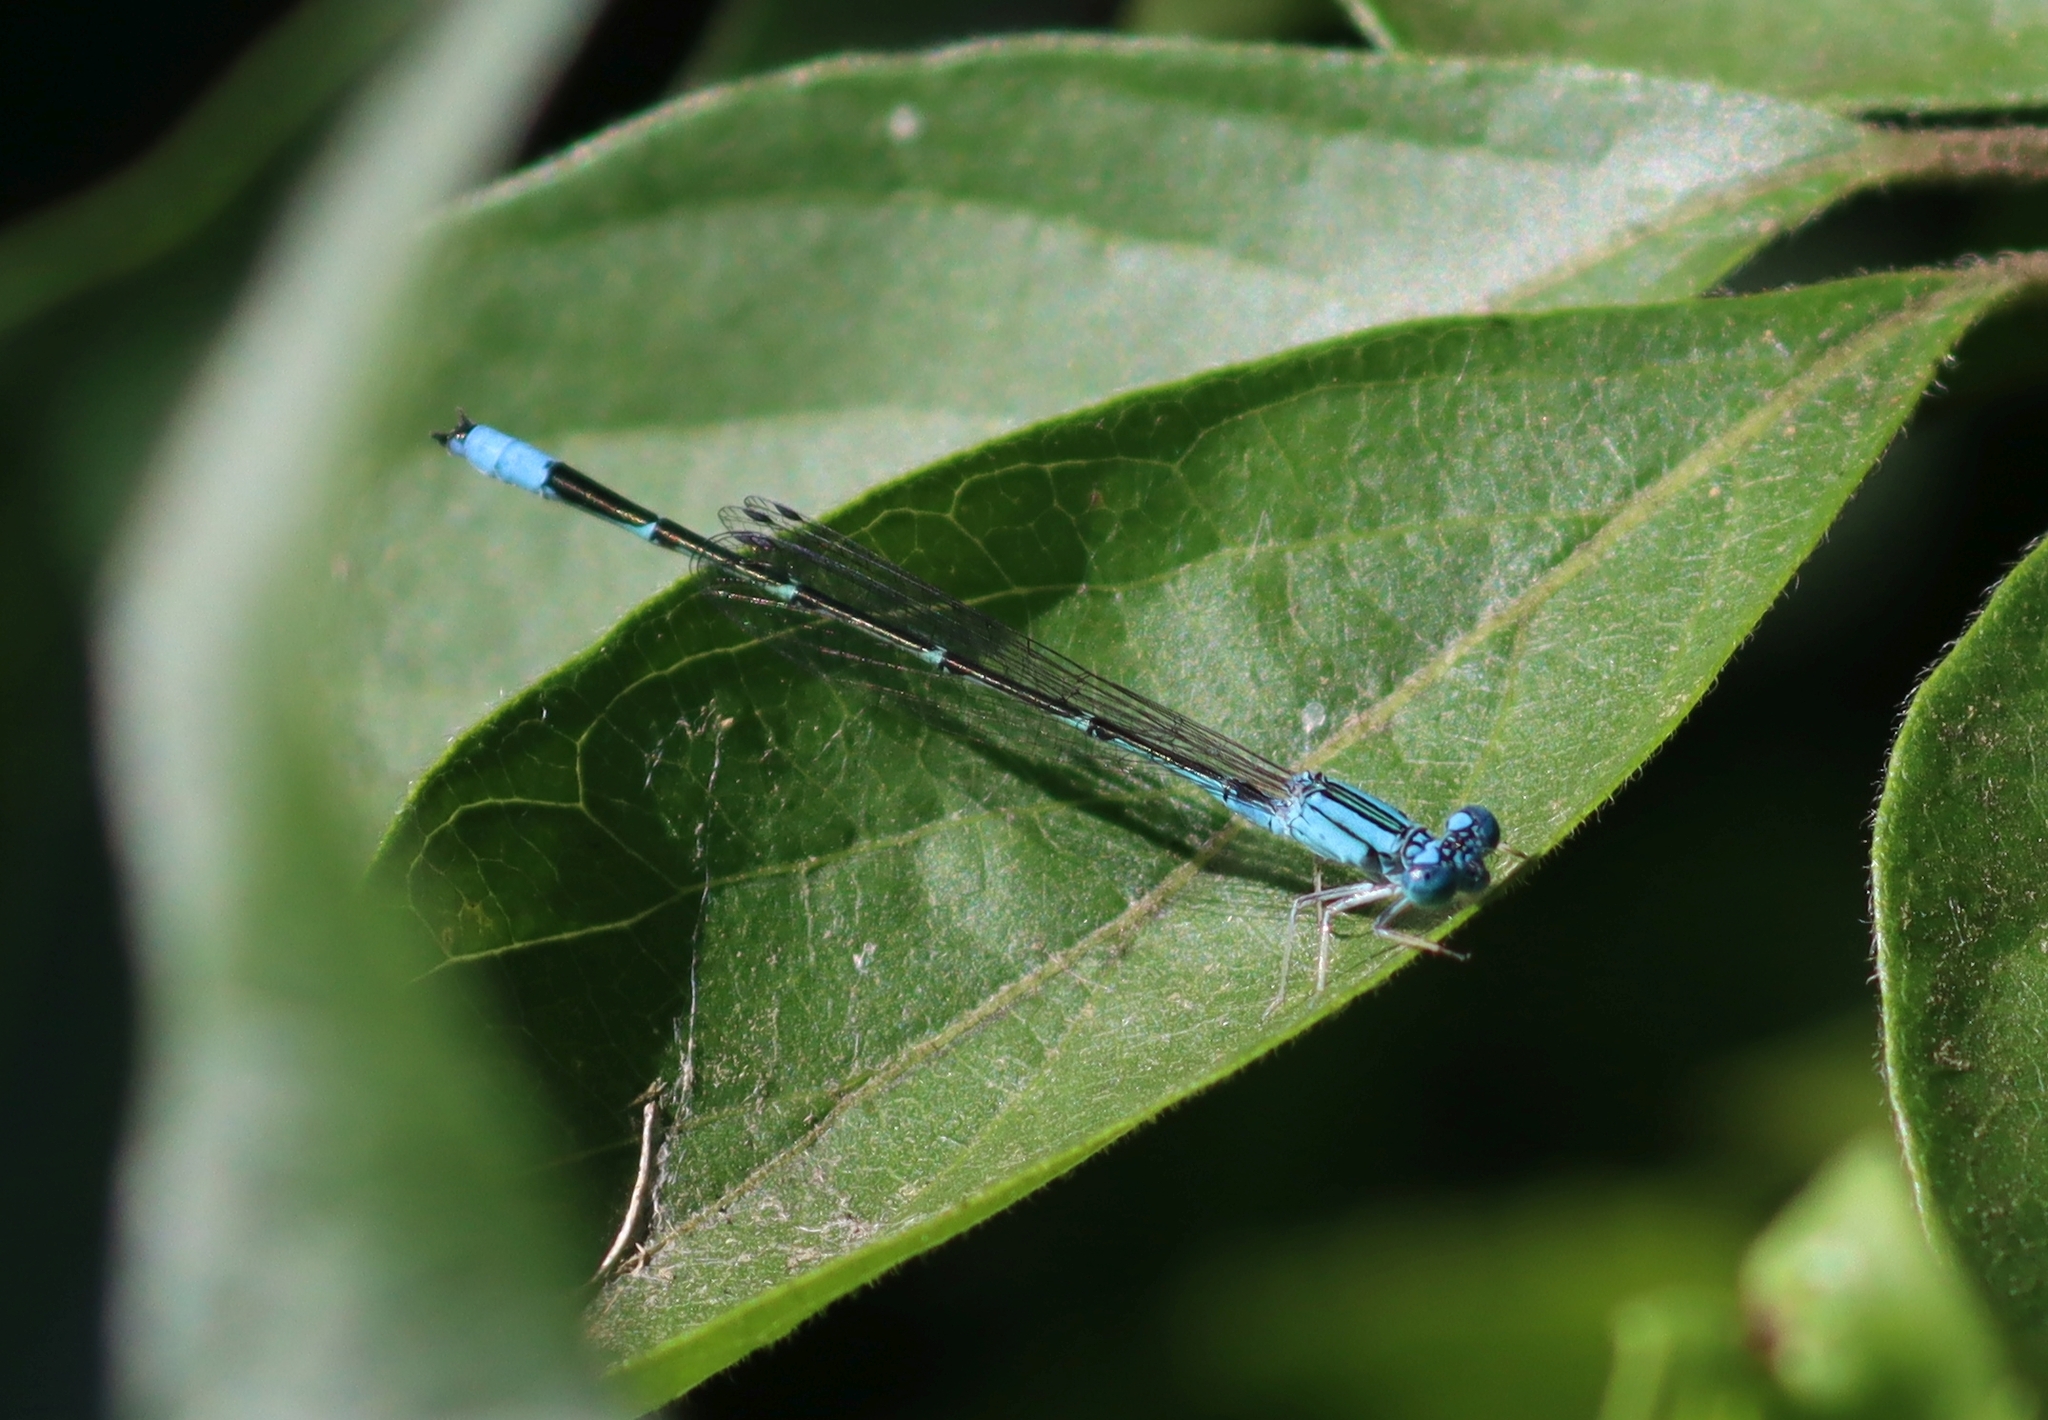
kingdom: Animalia
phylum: Arthropoda
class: Insecta
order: Odonata
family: Coenagrionidae
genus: Enallagma
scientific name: Enallagma traviatum
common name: Slender bluet
